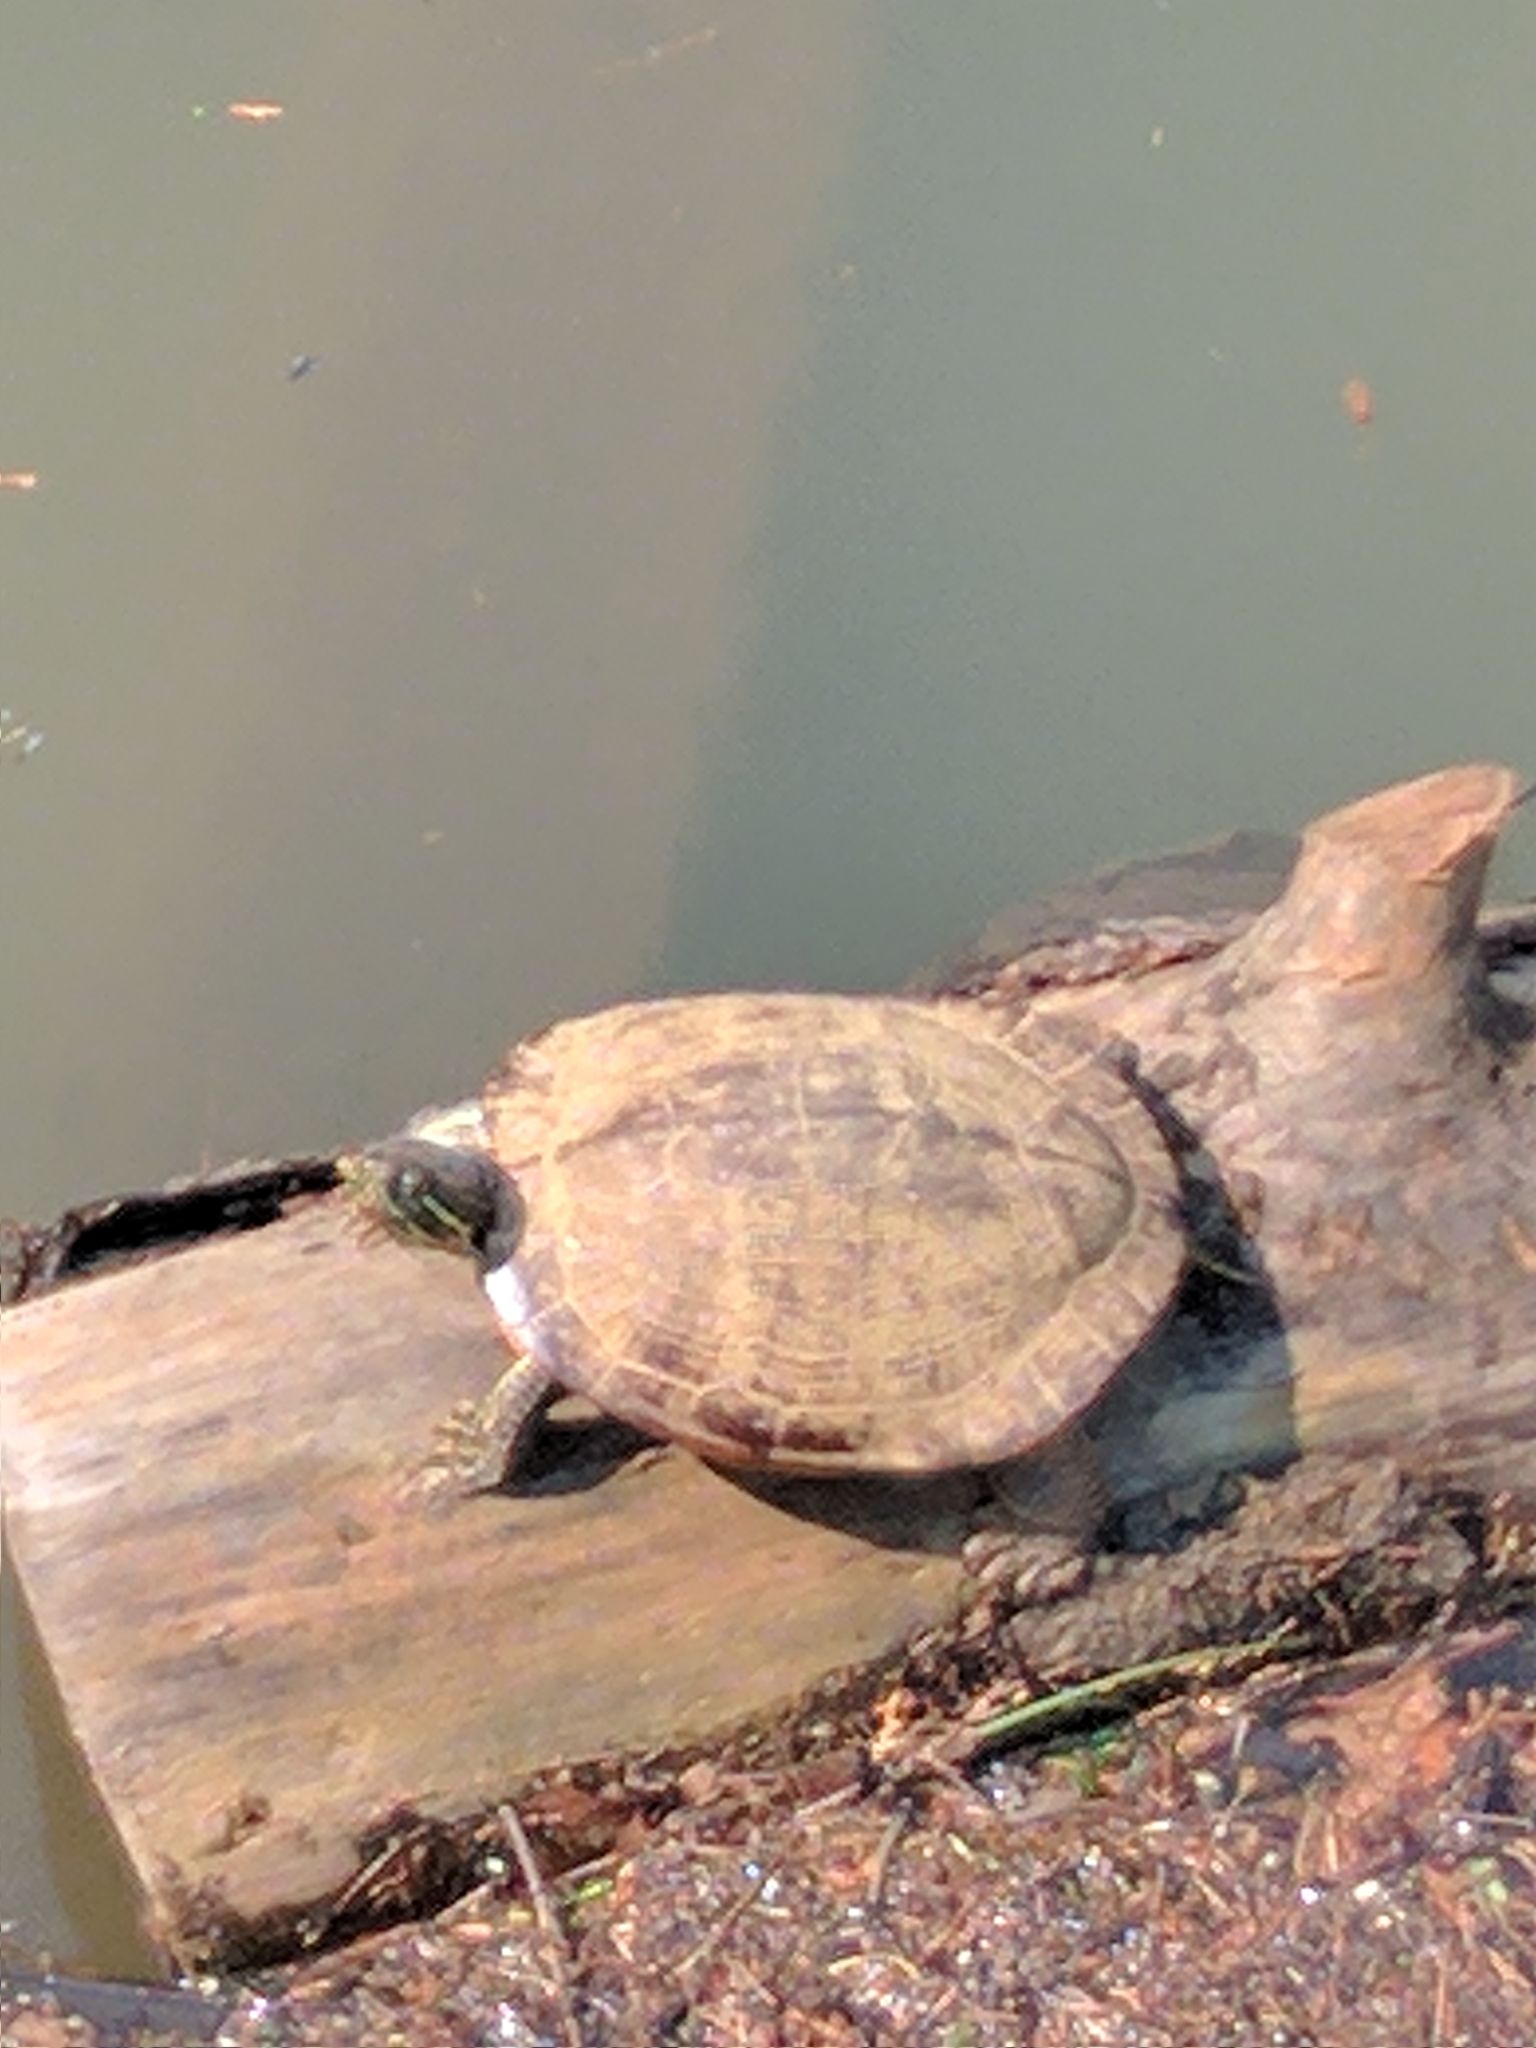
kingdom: Animalia
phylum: Chordata
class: Testudines
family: Emydidae
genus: Trachemys
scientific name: Trachemys scripta
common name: Slider
